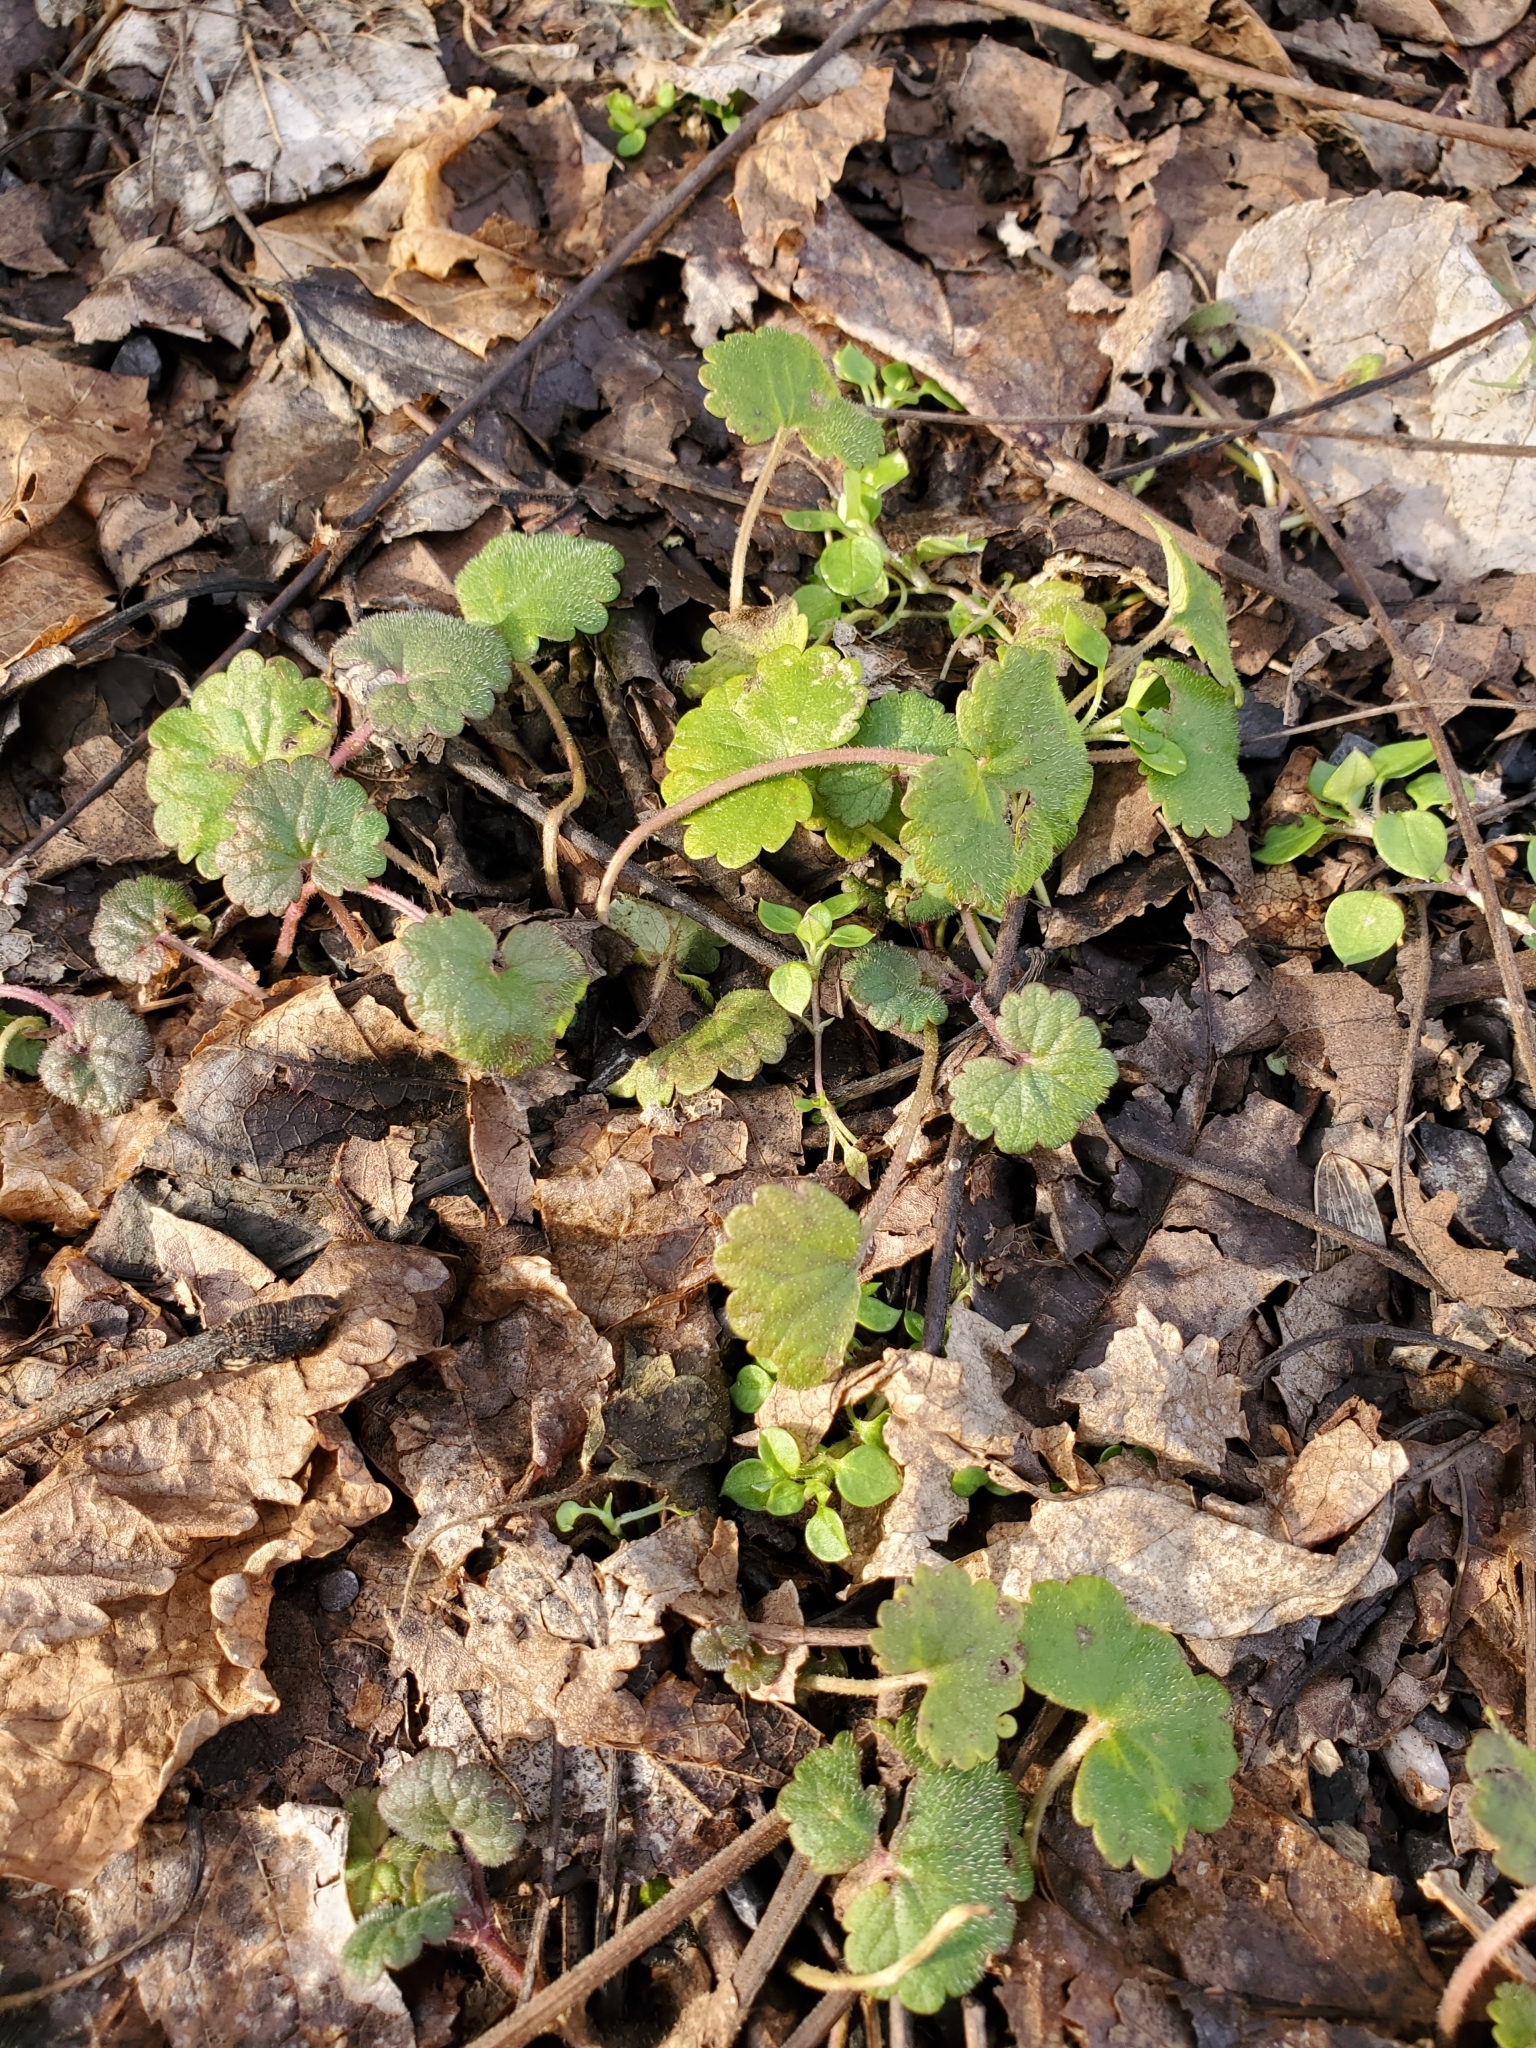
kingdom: Plantae
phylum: Tracheophyta
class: Magnoliopsida
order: Lamiales
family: Lamiaceae
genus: Glechoma
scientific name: Glechoma hederacea
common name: Ground ivy
